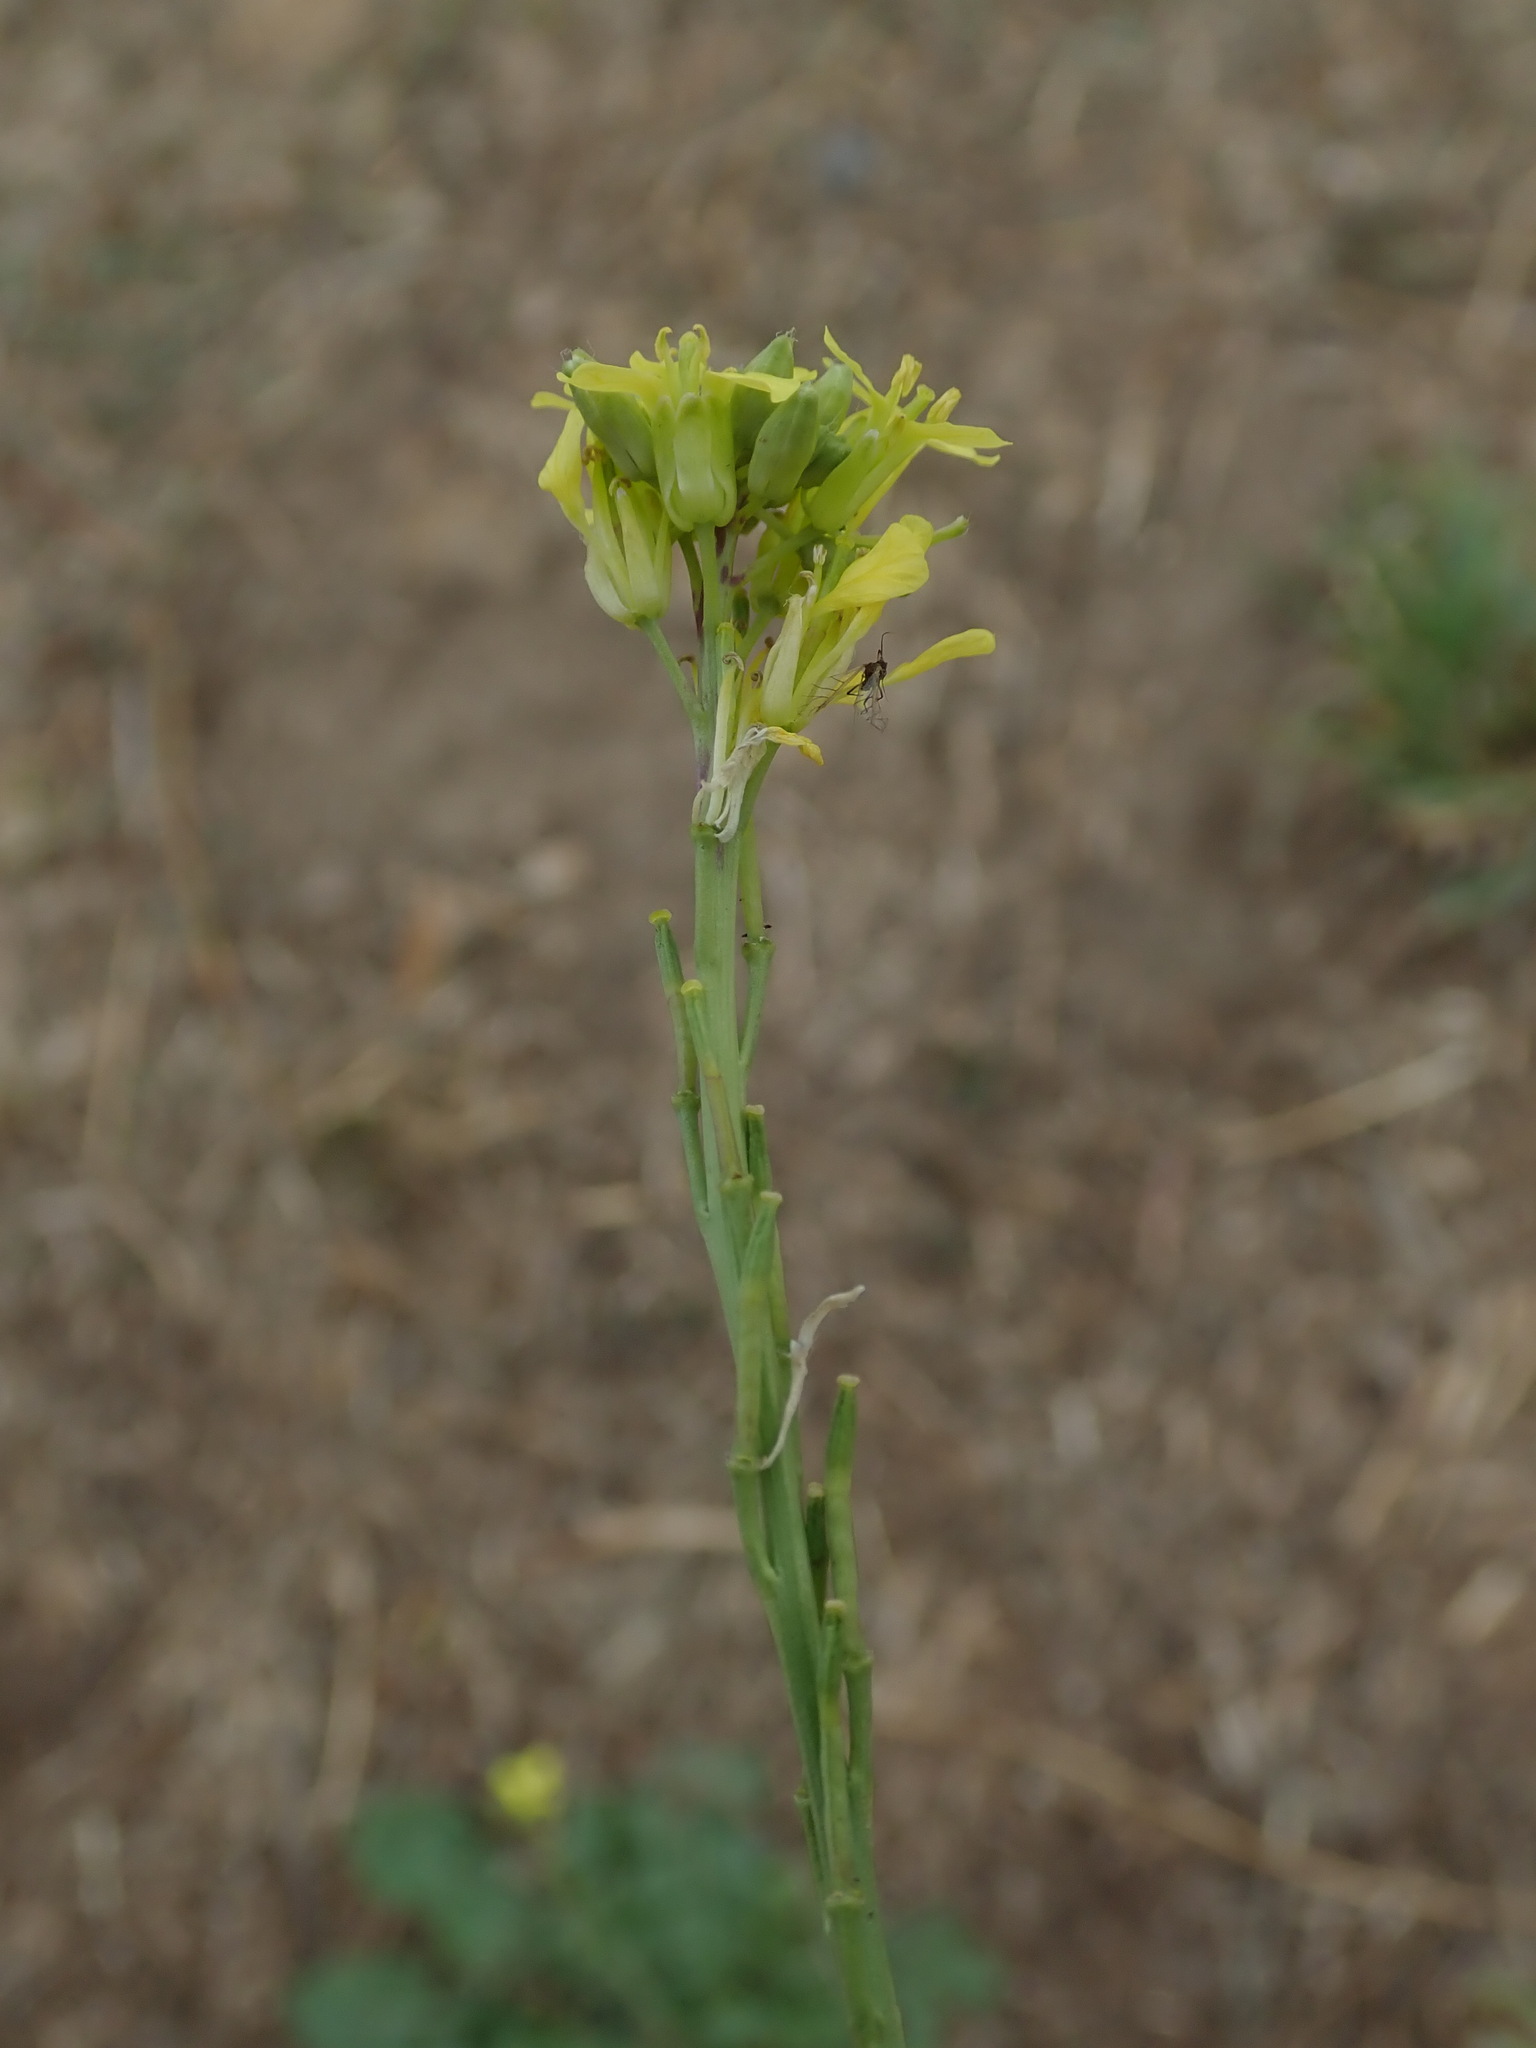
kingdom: Plantae
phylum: Tracheophyta
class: Magnoliopsida
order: Brassicales
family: Brassicaceae
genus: Hirschfeldia
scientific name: Hirschfeldia incana
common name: Hoary mustard
